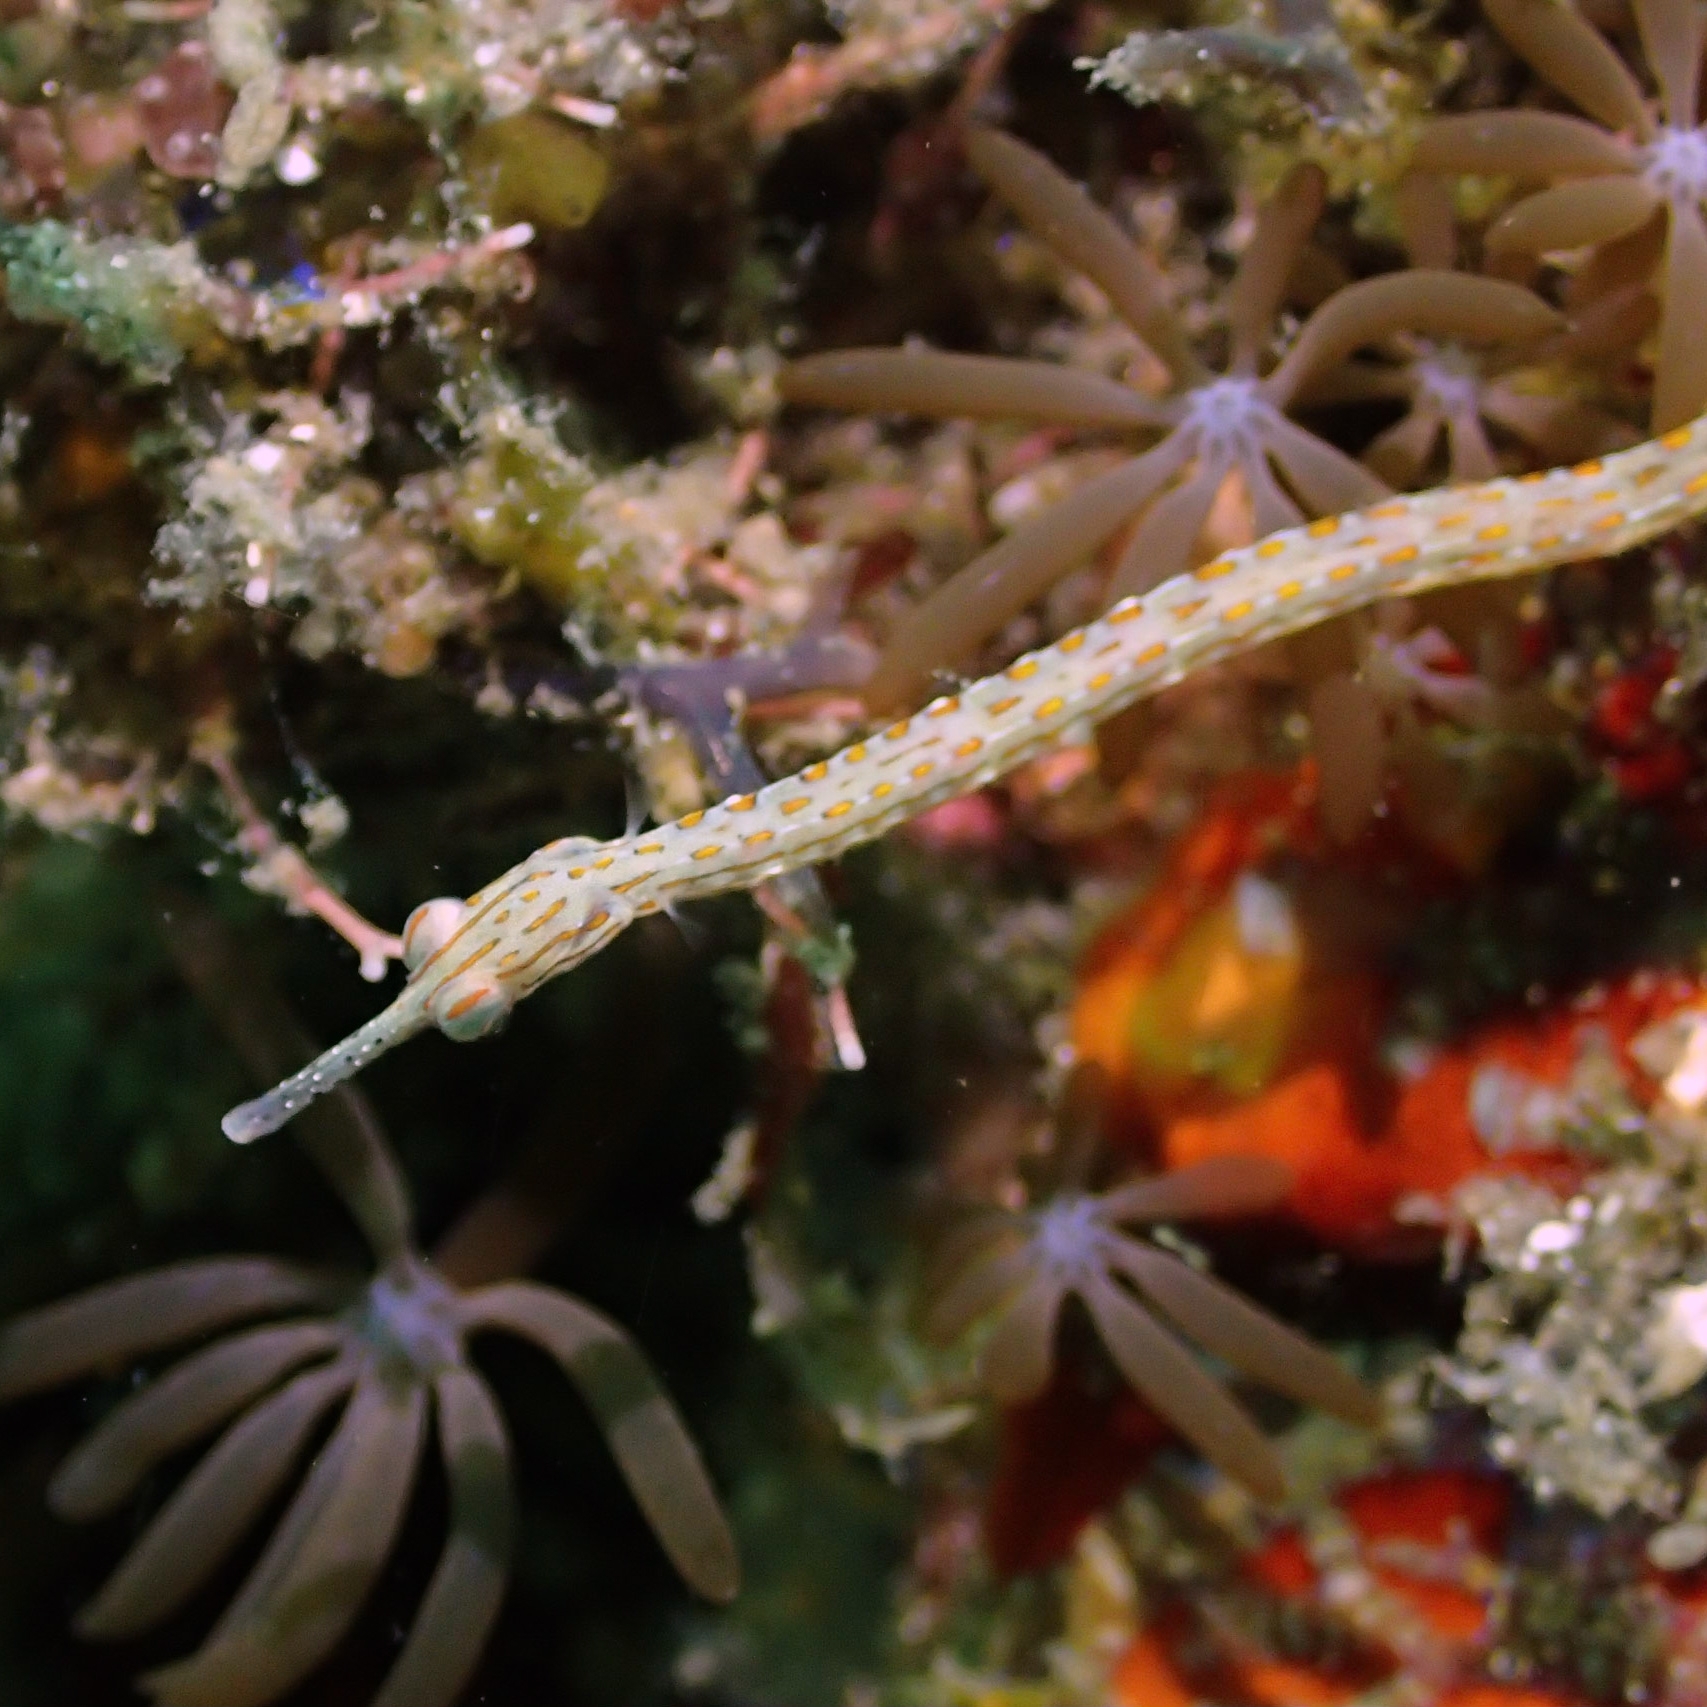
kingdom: Animalia
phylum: Chordata
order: Syngnathiformes
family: Syngnathidae
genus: Corythoichthys
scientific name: Corythoichthys ocellatus
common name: Ocellated pipefish
